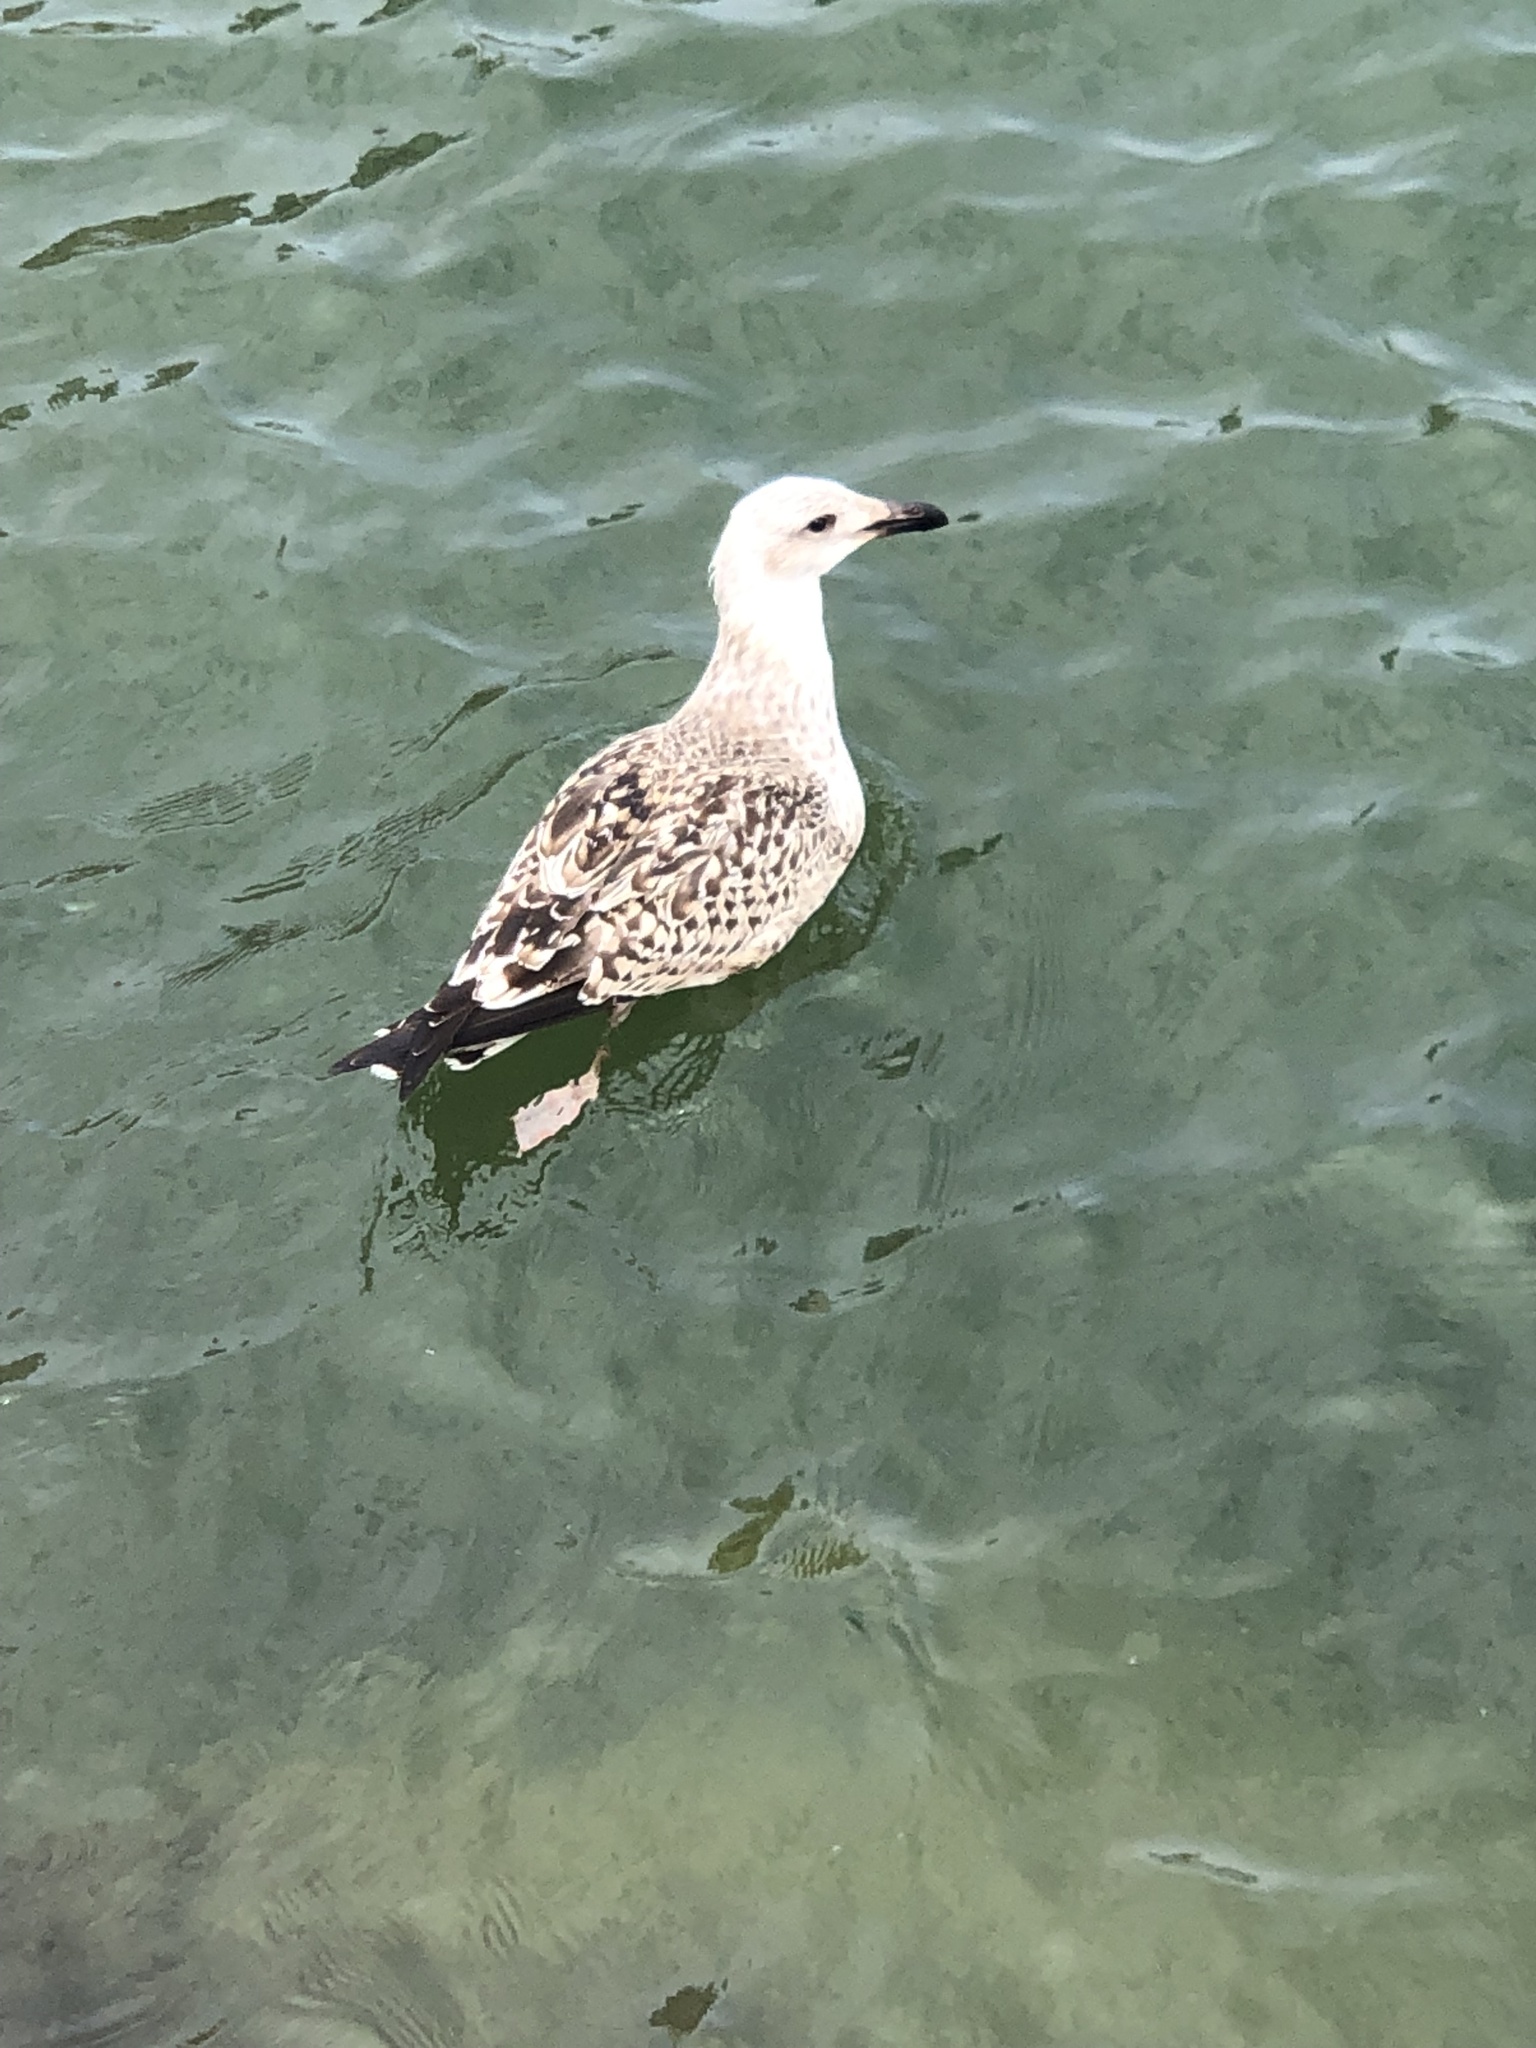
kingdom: Animalia
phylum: Chordata
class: Aves
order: Charadriiformes
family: Laridae
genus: Larus
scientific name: Larus marinus
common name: Great black-backed gull
